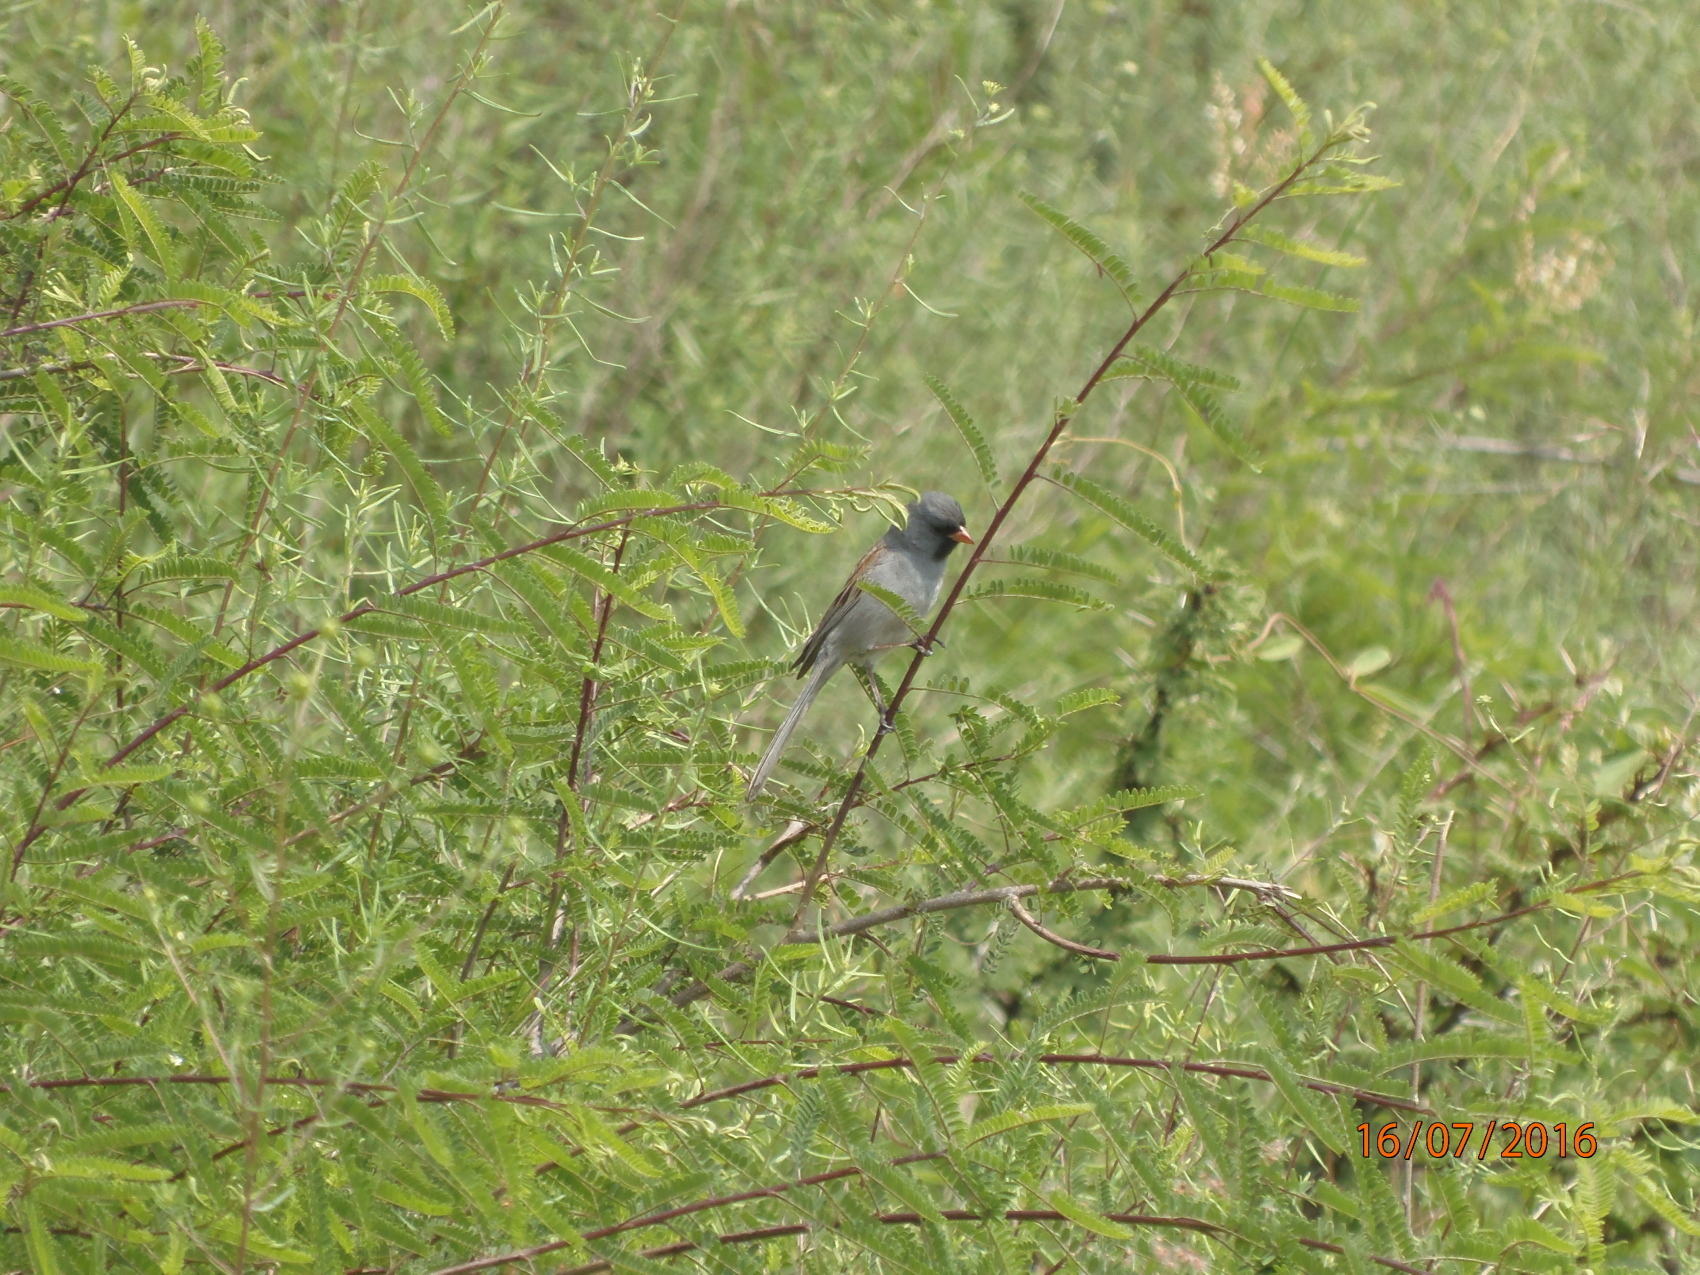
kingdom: Animalia
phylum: Chordata
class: Aves
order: Passeriformes
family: Passerellidae
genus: Spizella
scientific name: Spizella atrogularis
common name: Black-chinned sparrow
